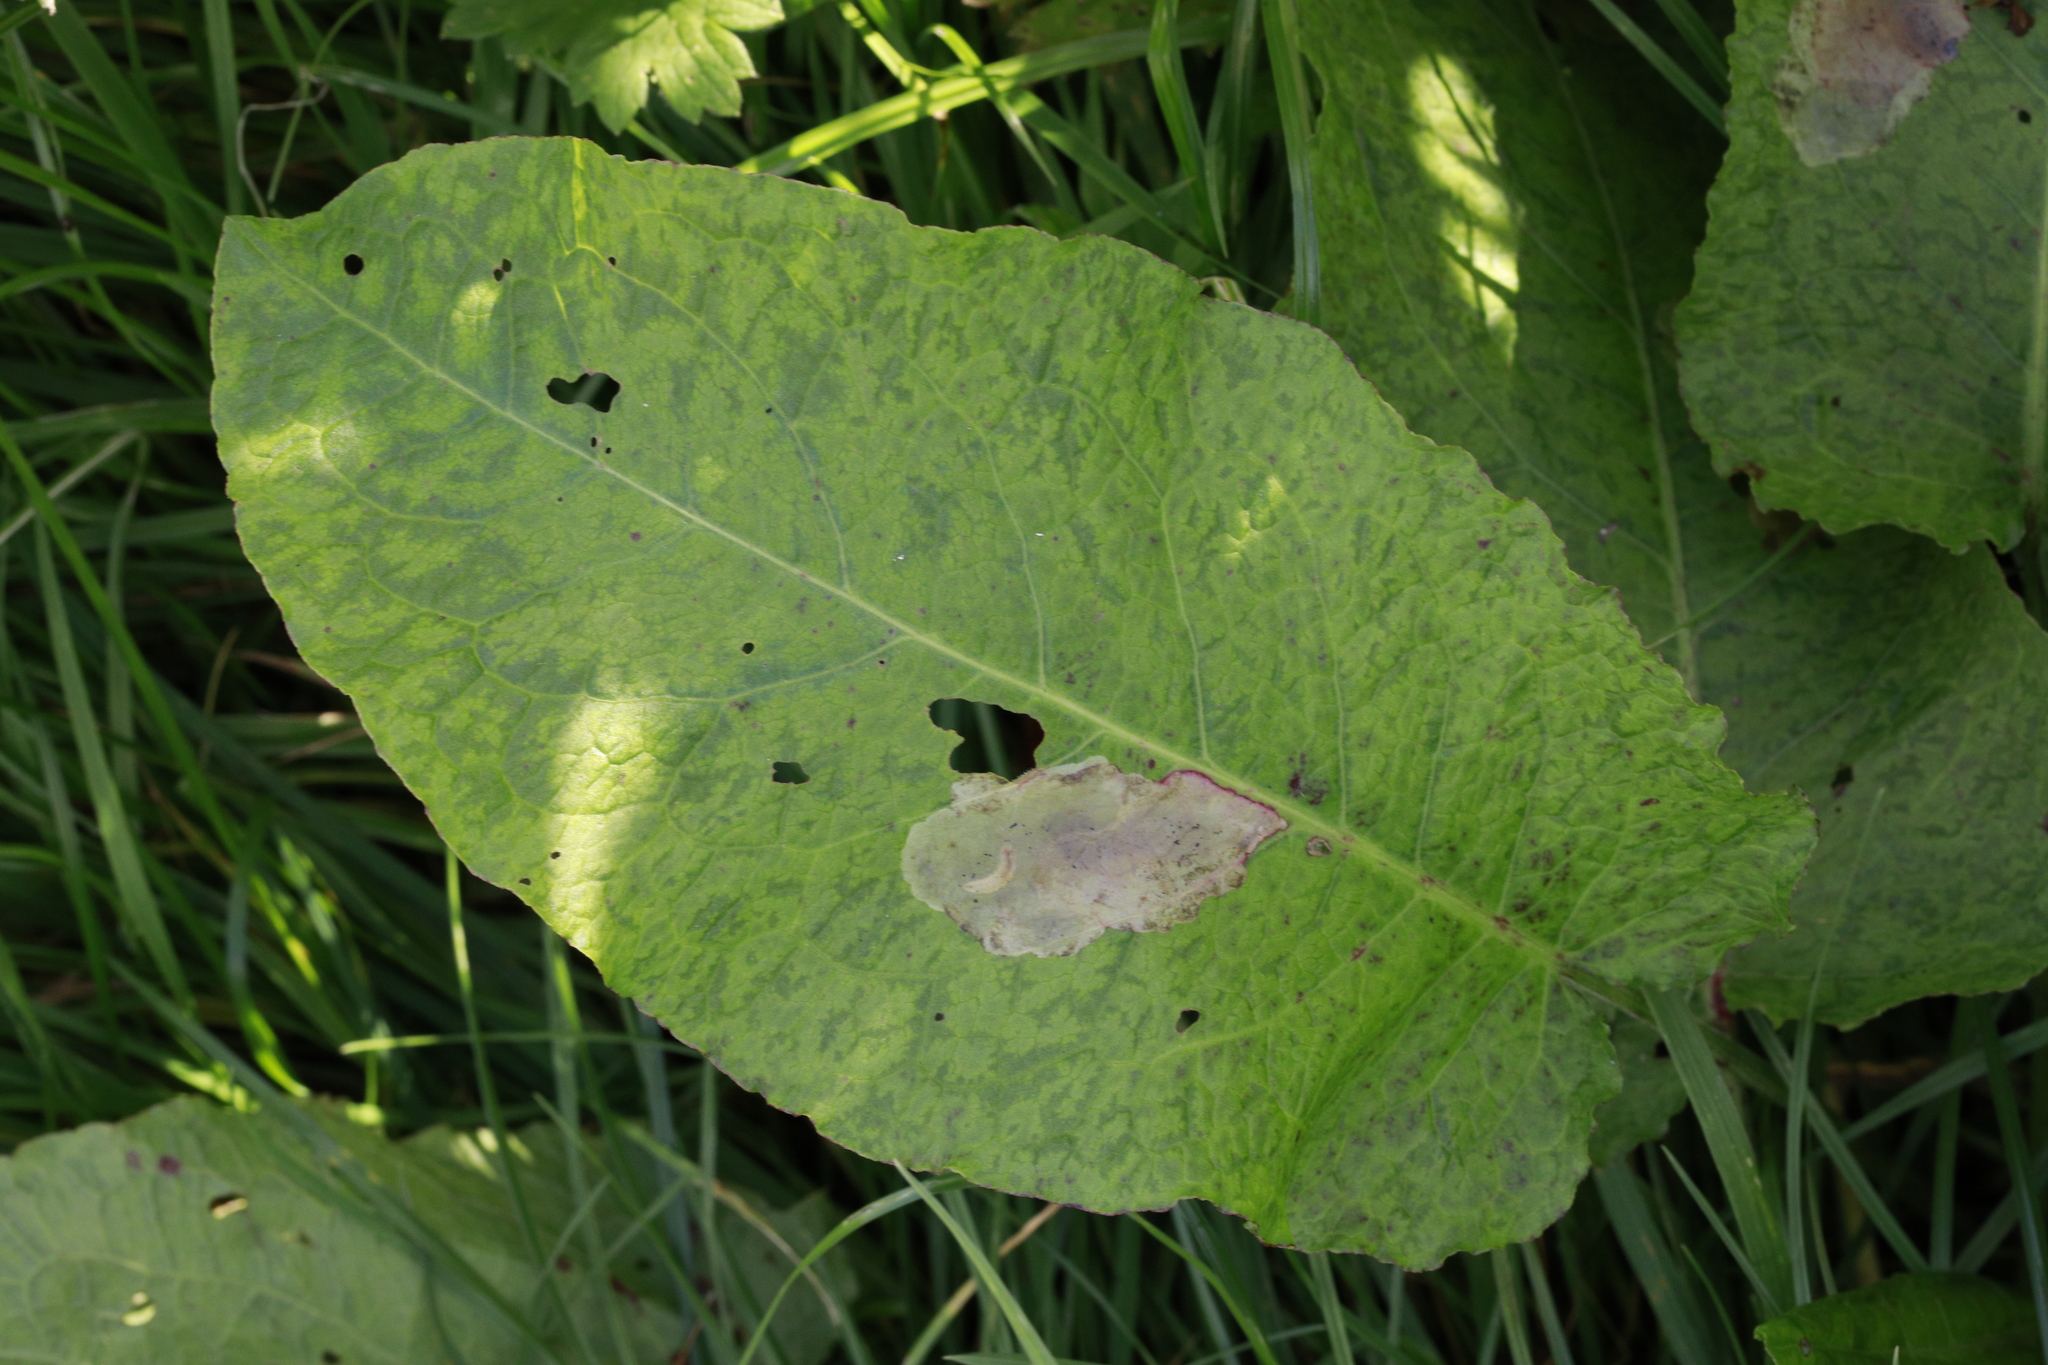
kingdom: Plantae
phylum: Tracheophyta
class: Magnoliopsida
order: Caryophyllales
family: Polygonaceae
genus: Rumex
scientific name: Rumex obtusifolius
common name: Bitter dock
